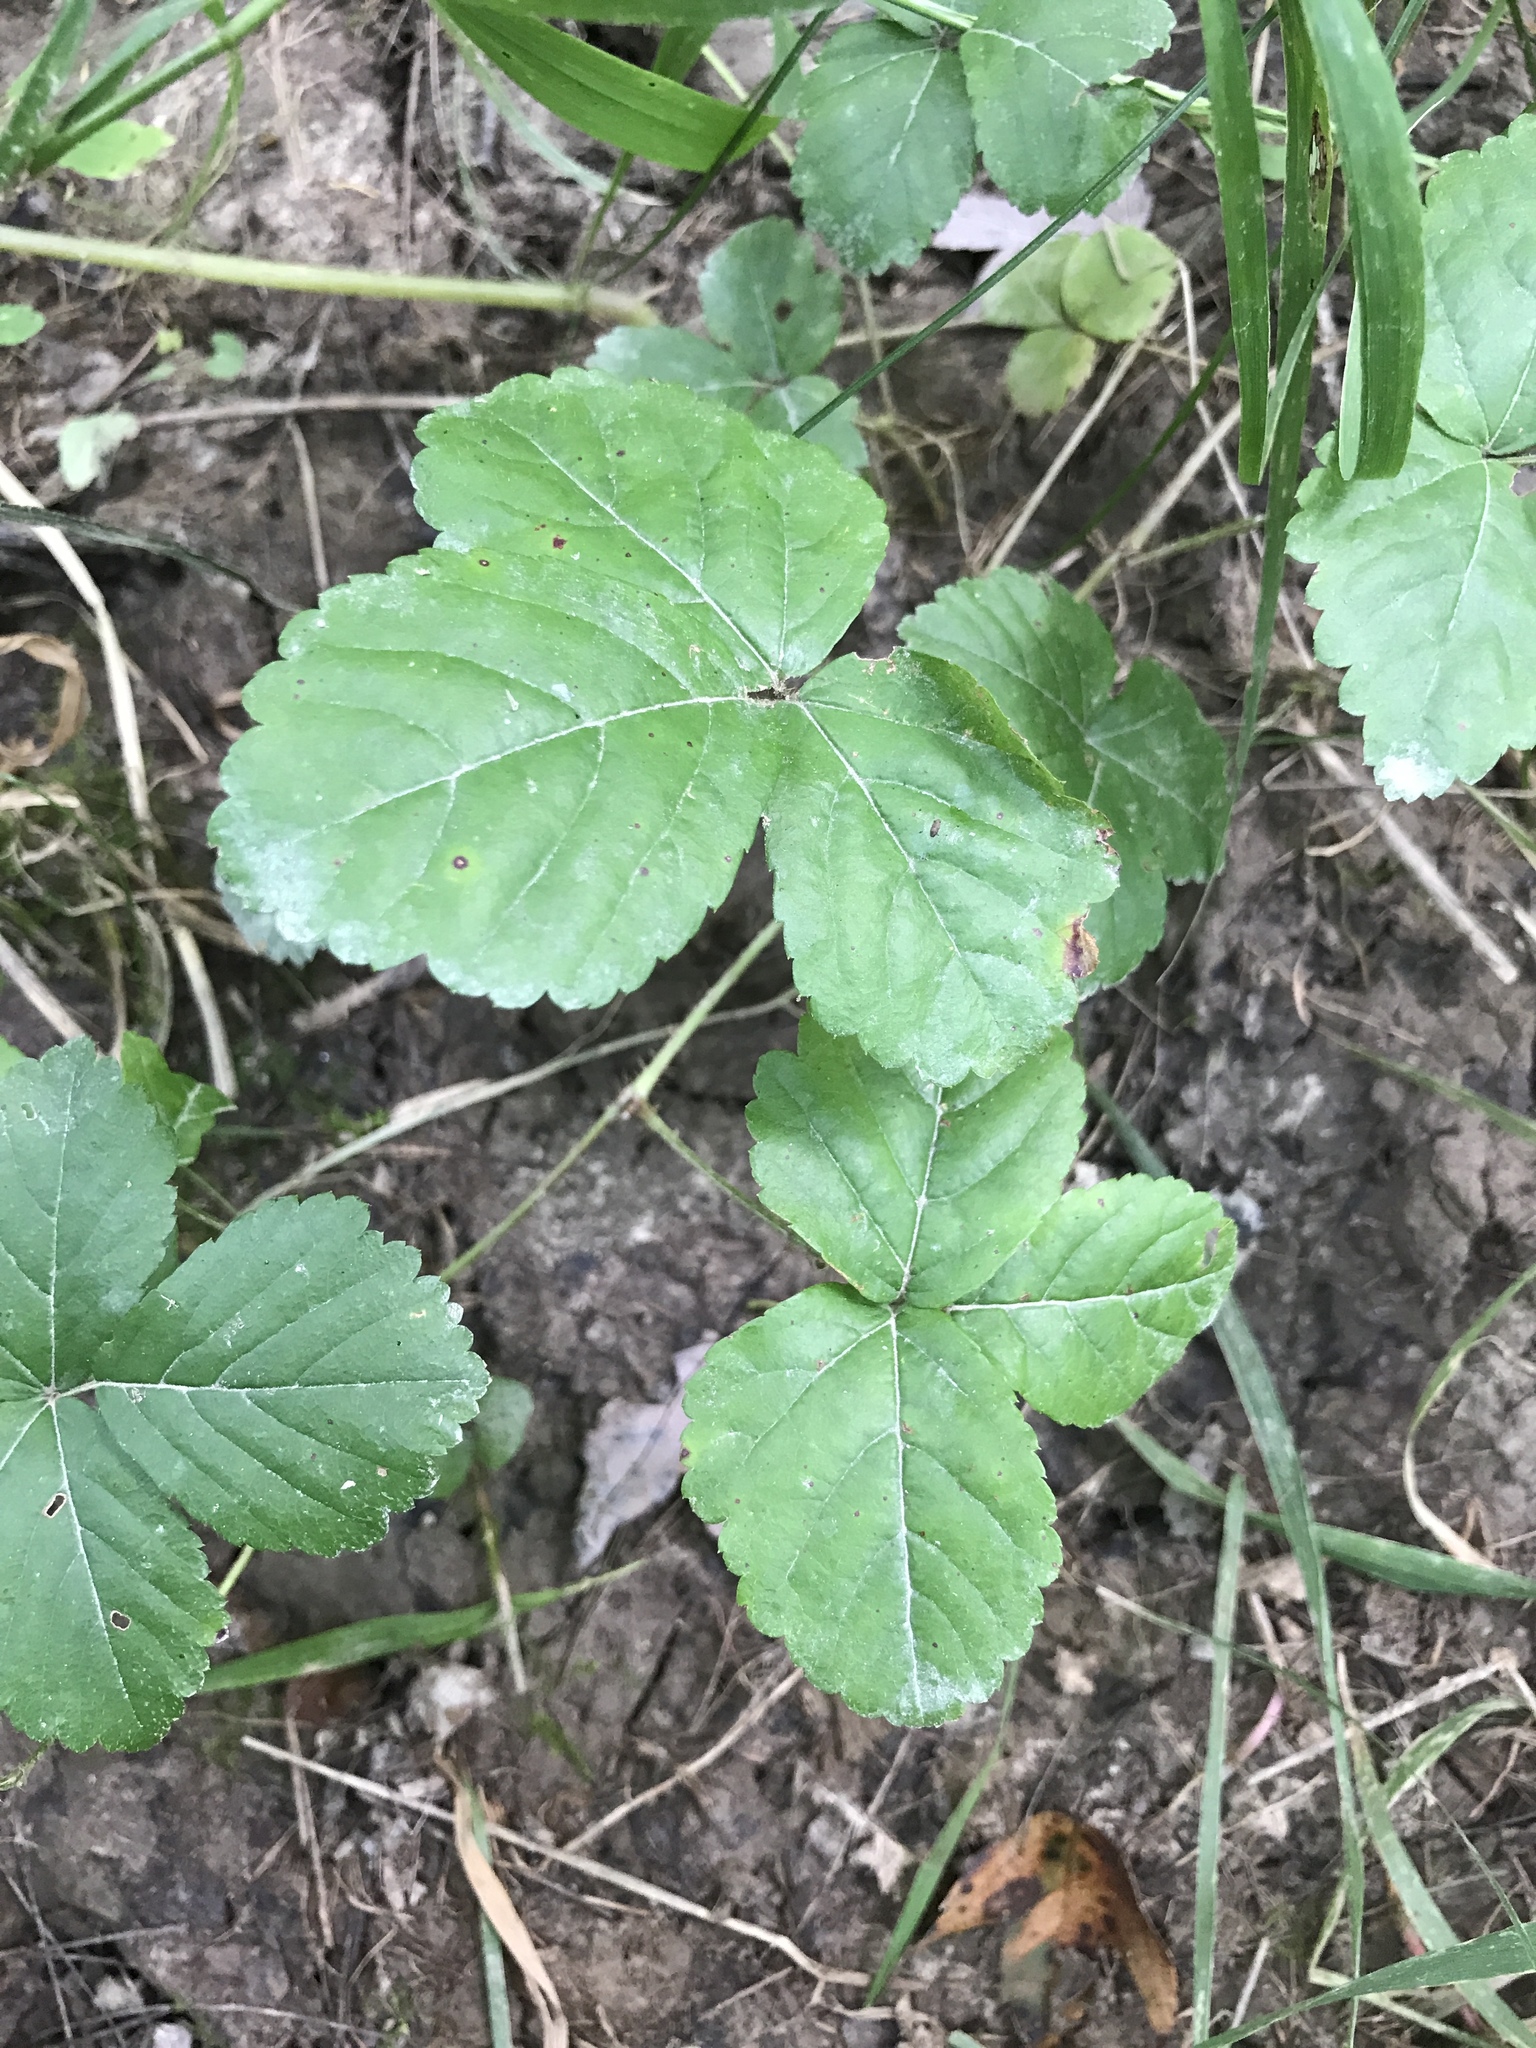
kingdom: Plantae
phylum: Tracheophyta
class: Magnoliopsida
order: Rosales
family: Rosaceae
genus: Rubus
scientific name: Rubus hispidus
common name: Running blackberry
